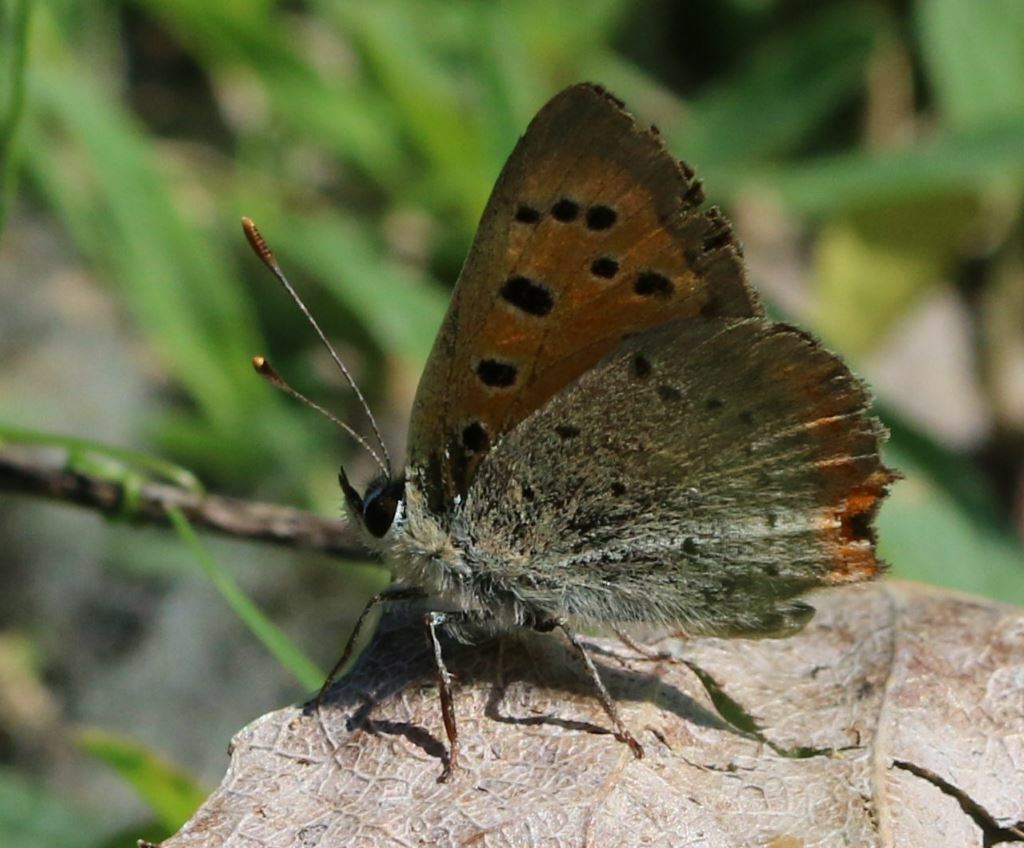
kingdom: Animalia
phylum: Arthropoda
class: Insecta
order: Lepidoptera
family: Lycaenidae
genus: Lycaena
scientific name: Lycaena phlaeas
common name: Small copper
